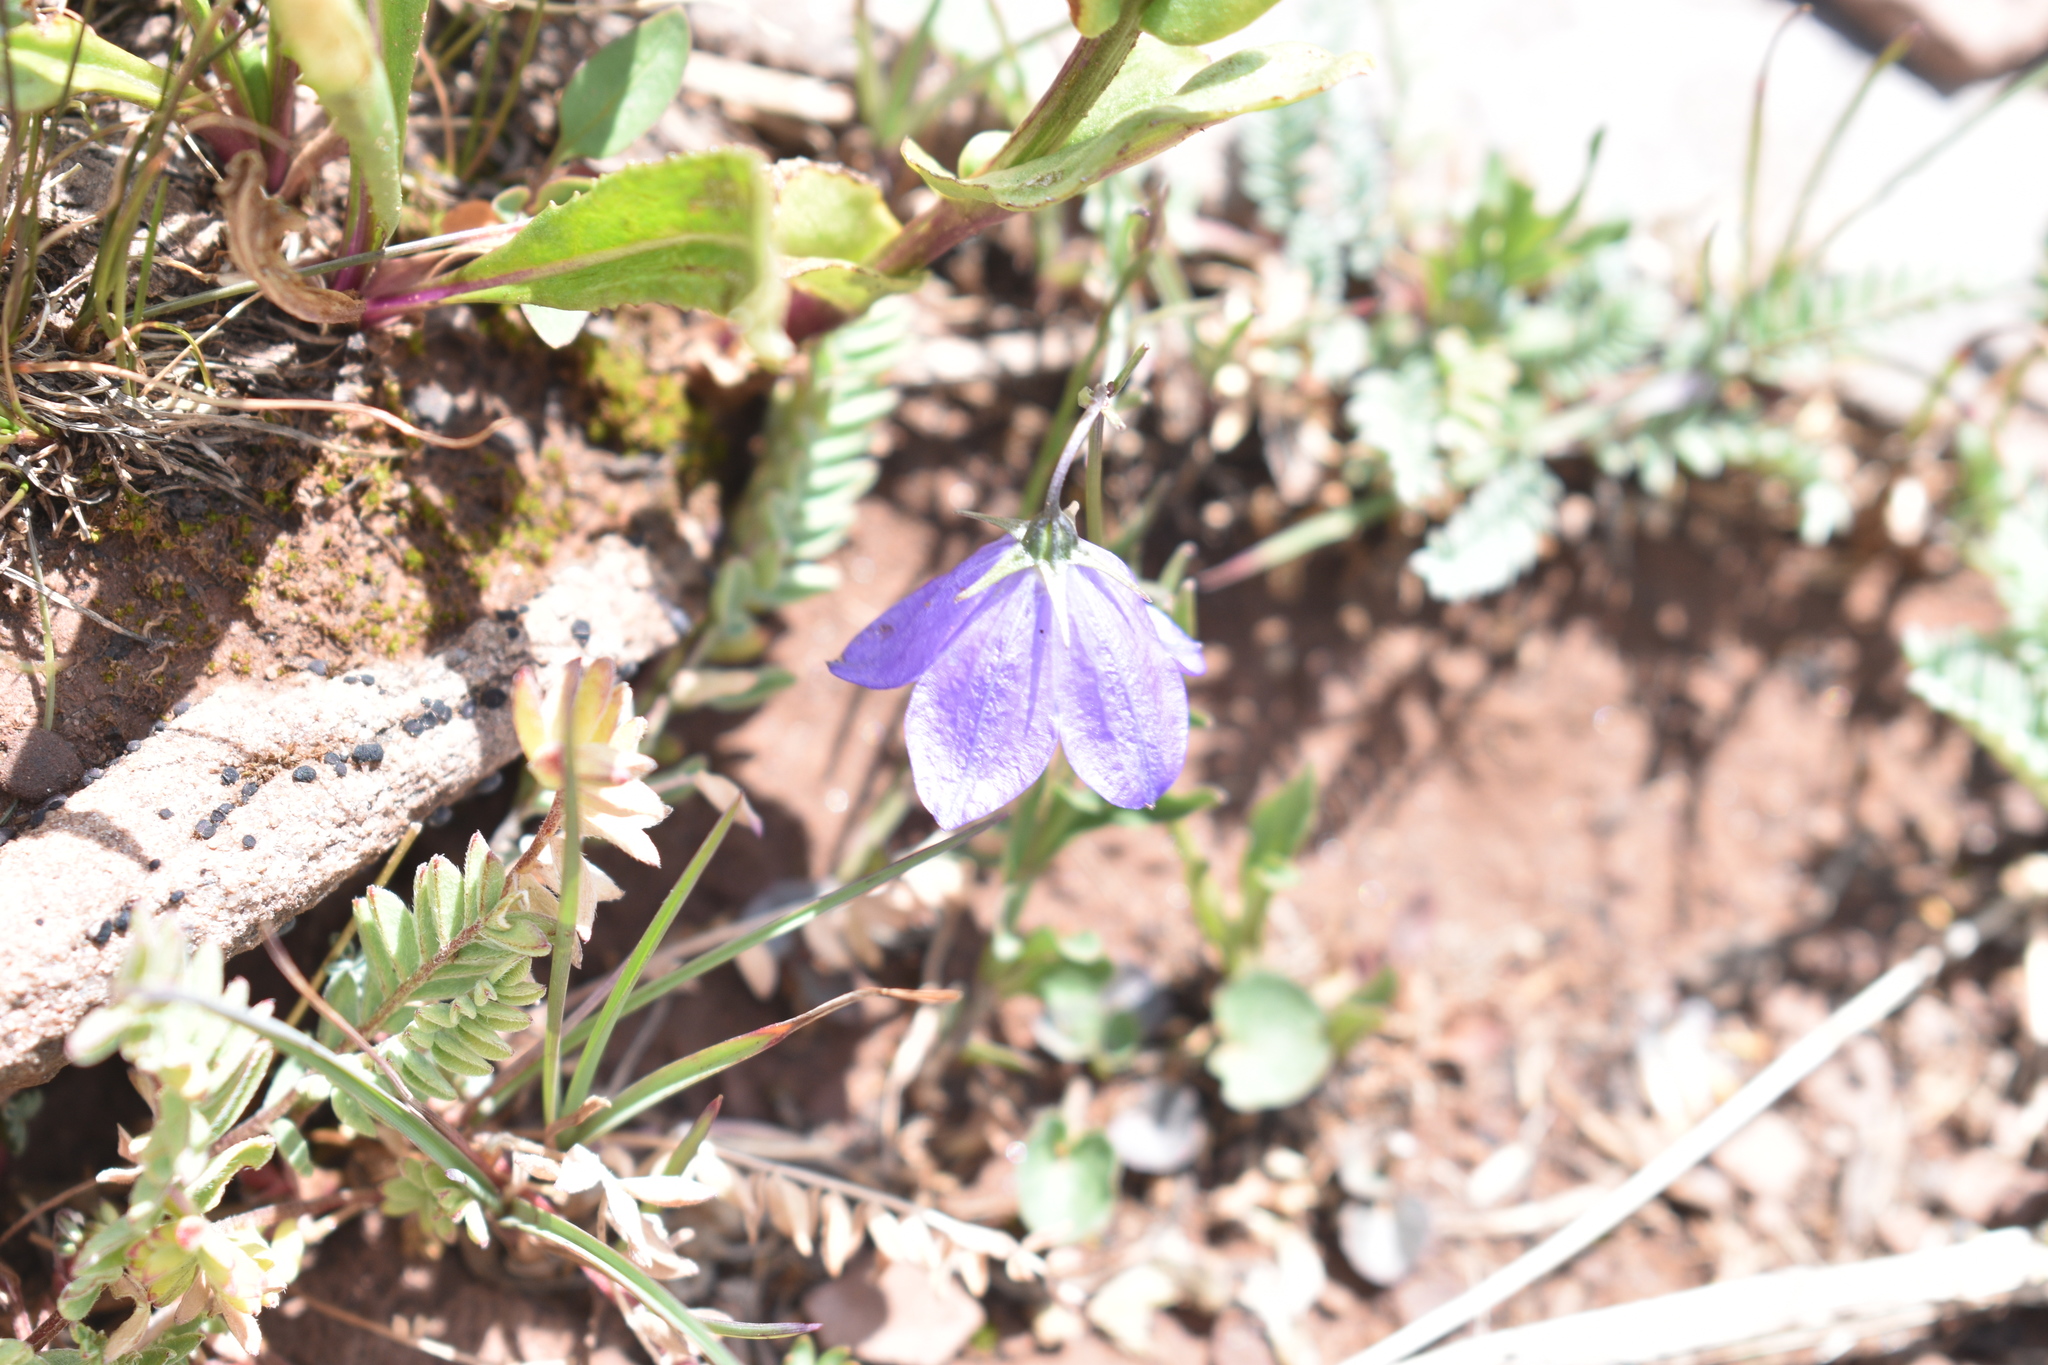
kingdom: Plantae
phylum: Tracheophyta
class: Magnoliopsida
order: Asterales
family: Campanulaceae
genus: Campanula
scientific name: Campanula petiolata
